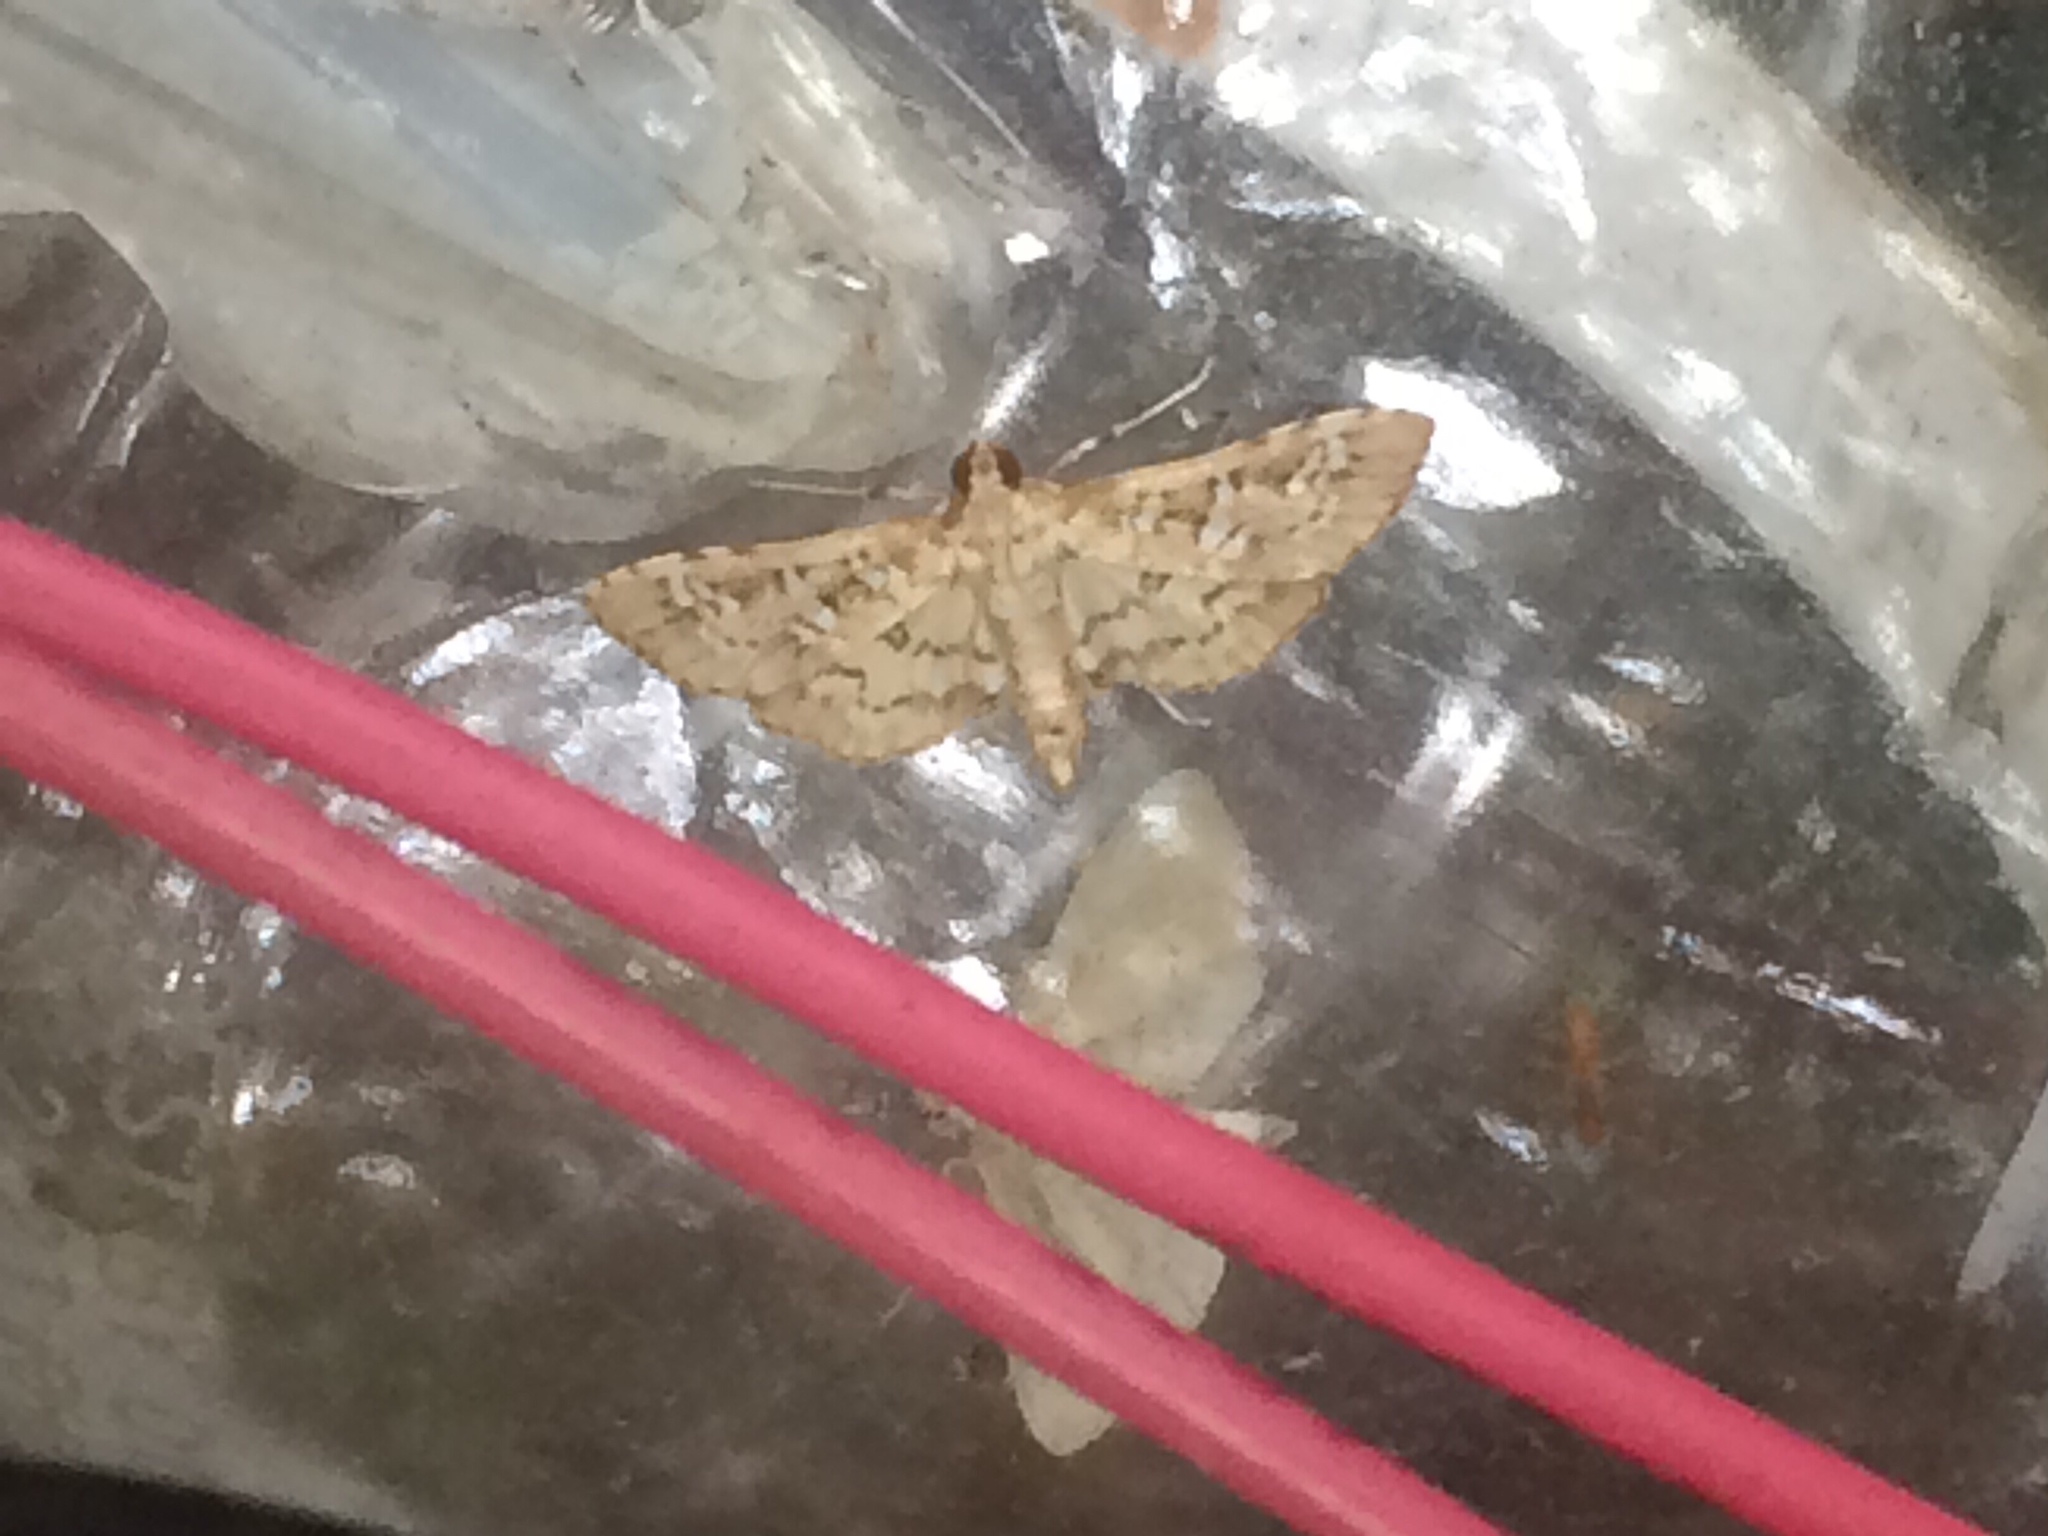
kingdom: Animalia
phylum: Arthropoda
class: Insecta
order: Lepidoptera
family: Crambidae
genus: Samea
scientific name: Samea multiplicalis
